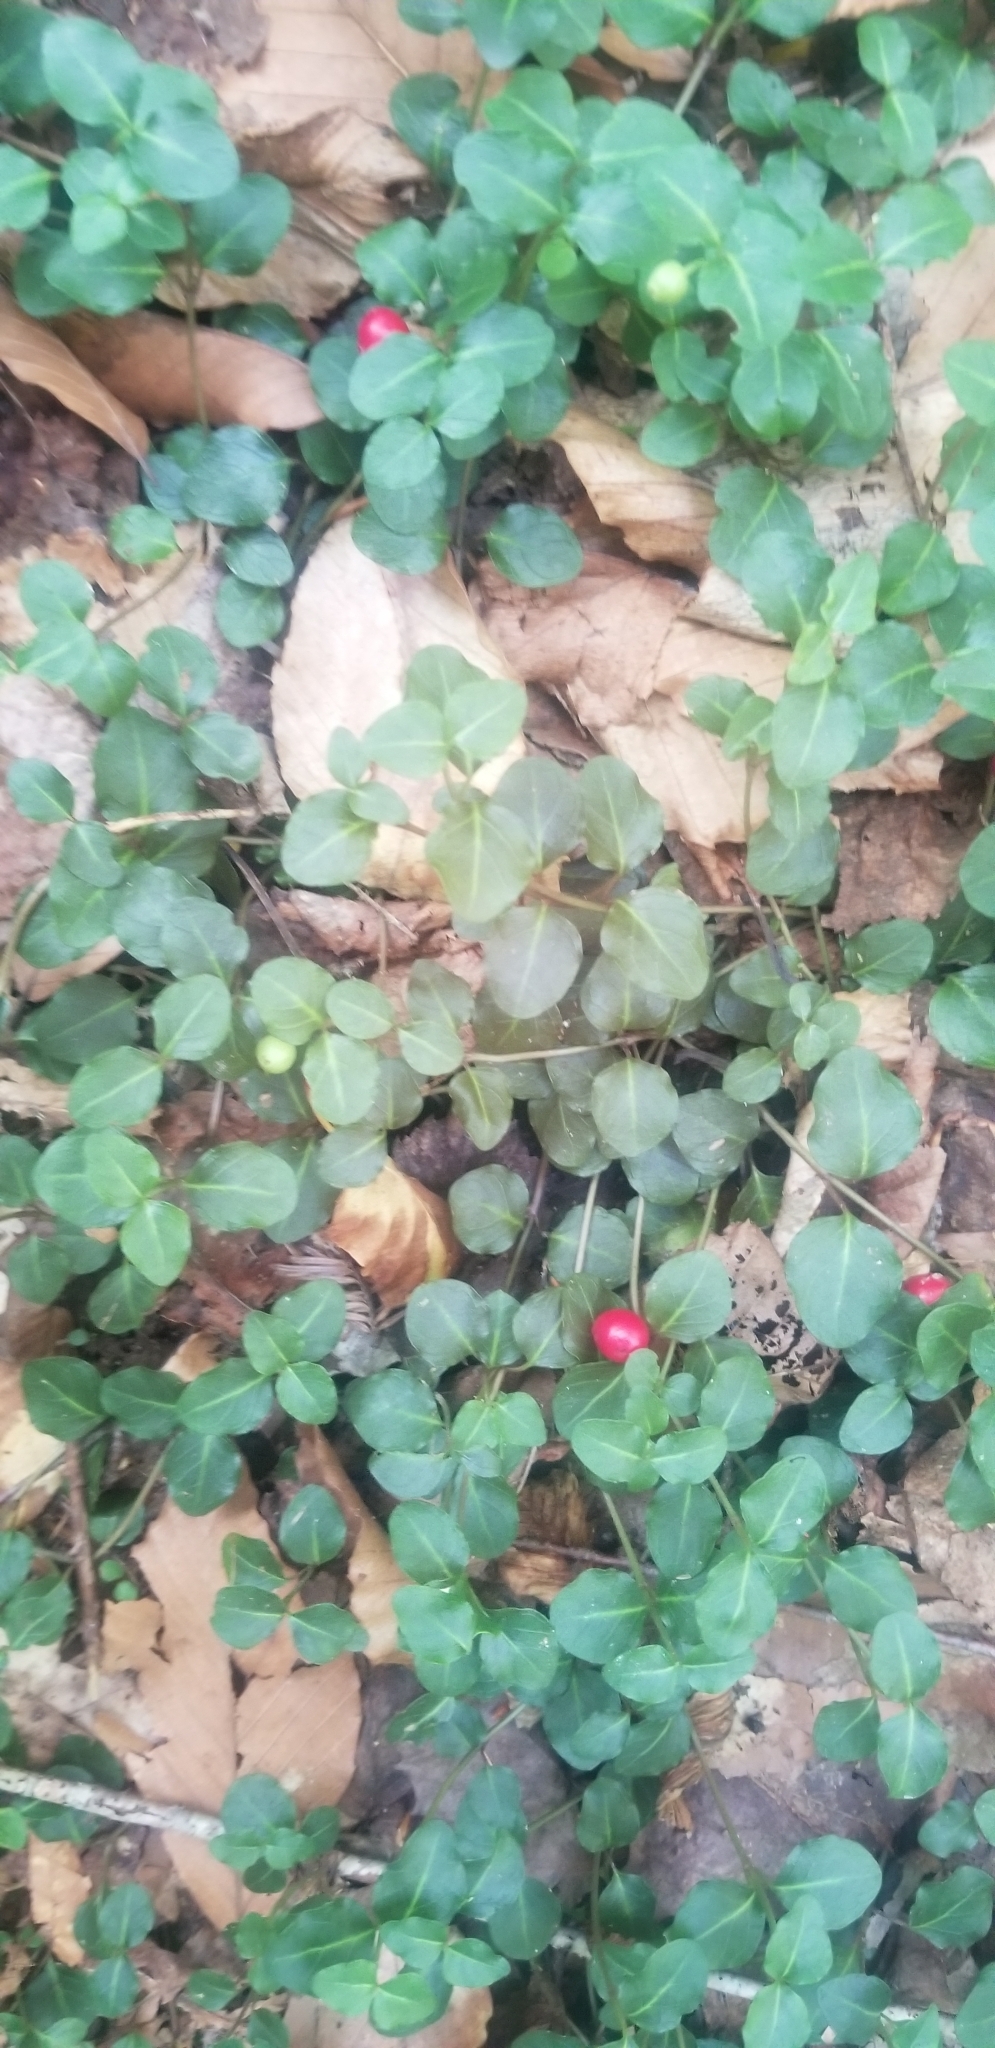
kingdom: Plantae
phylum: Tracheophyta
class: Magnoliopsida
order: Gentianales
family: Rubiaceae
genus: Mitchella
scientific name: Mitchella repens
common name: Partridge-berry
